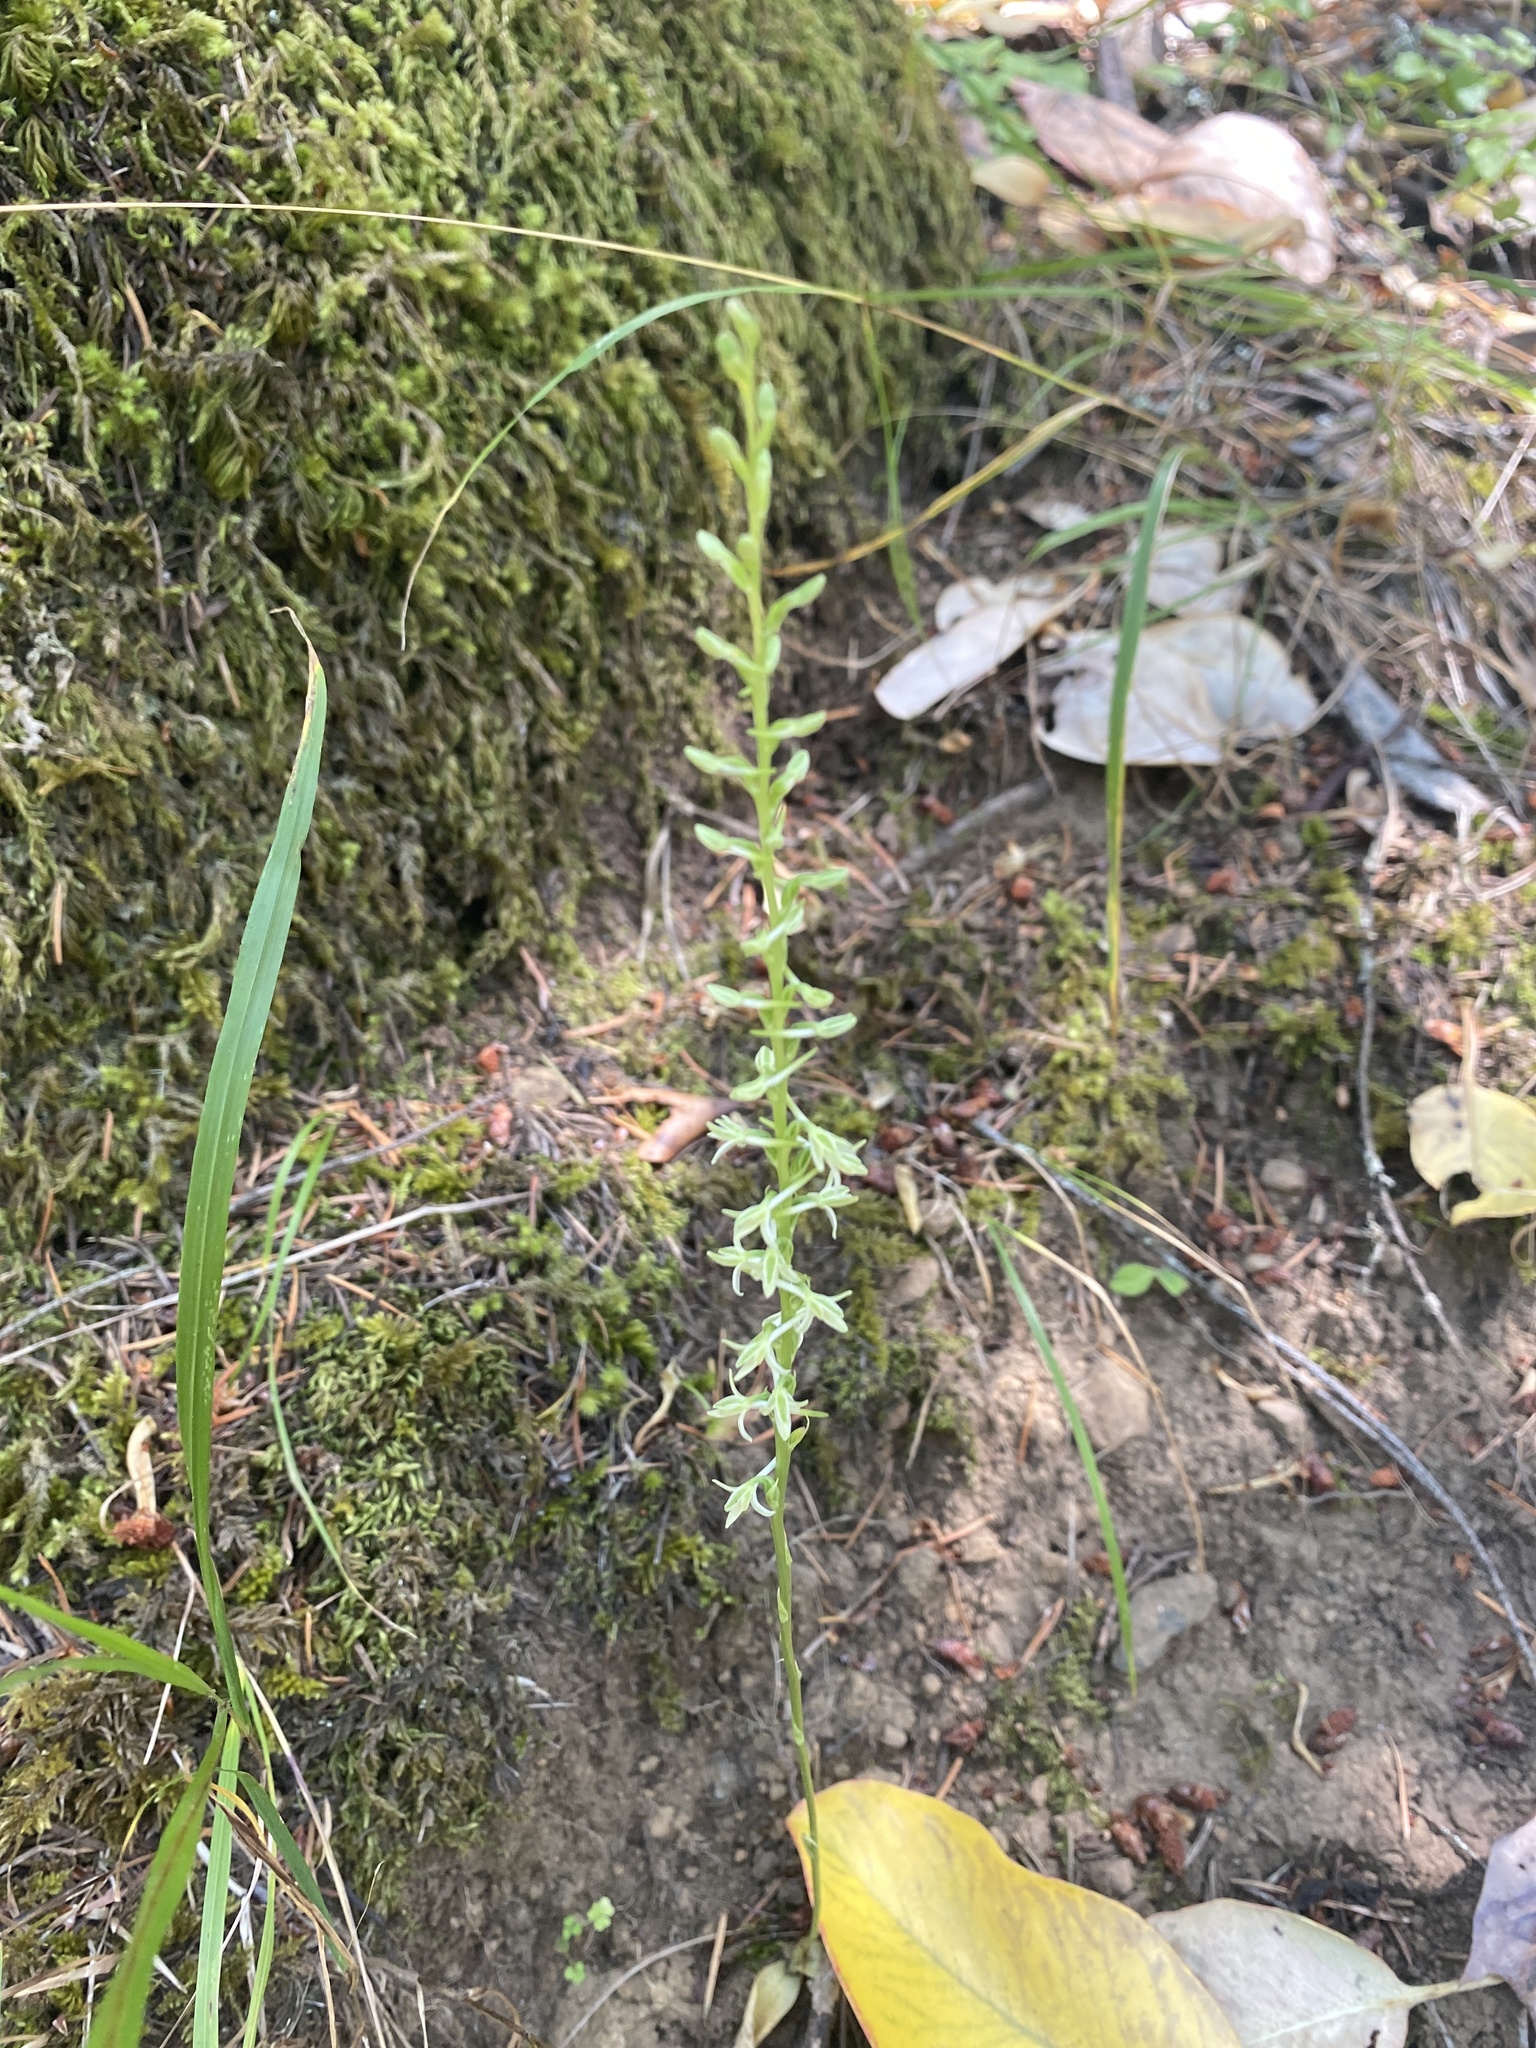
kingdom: Plantae
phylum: Tracheophyta
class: Liliopsida
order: Asparagales
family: Orchidaceae
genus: Platanthera
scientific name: Platanthera transversa
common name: Royal rein orchid
